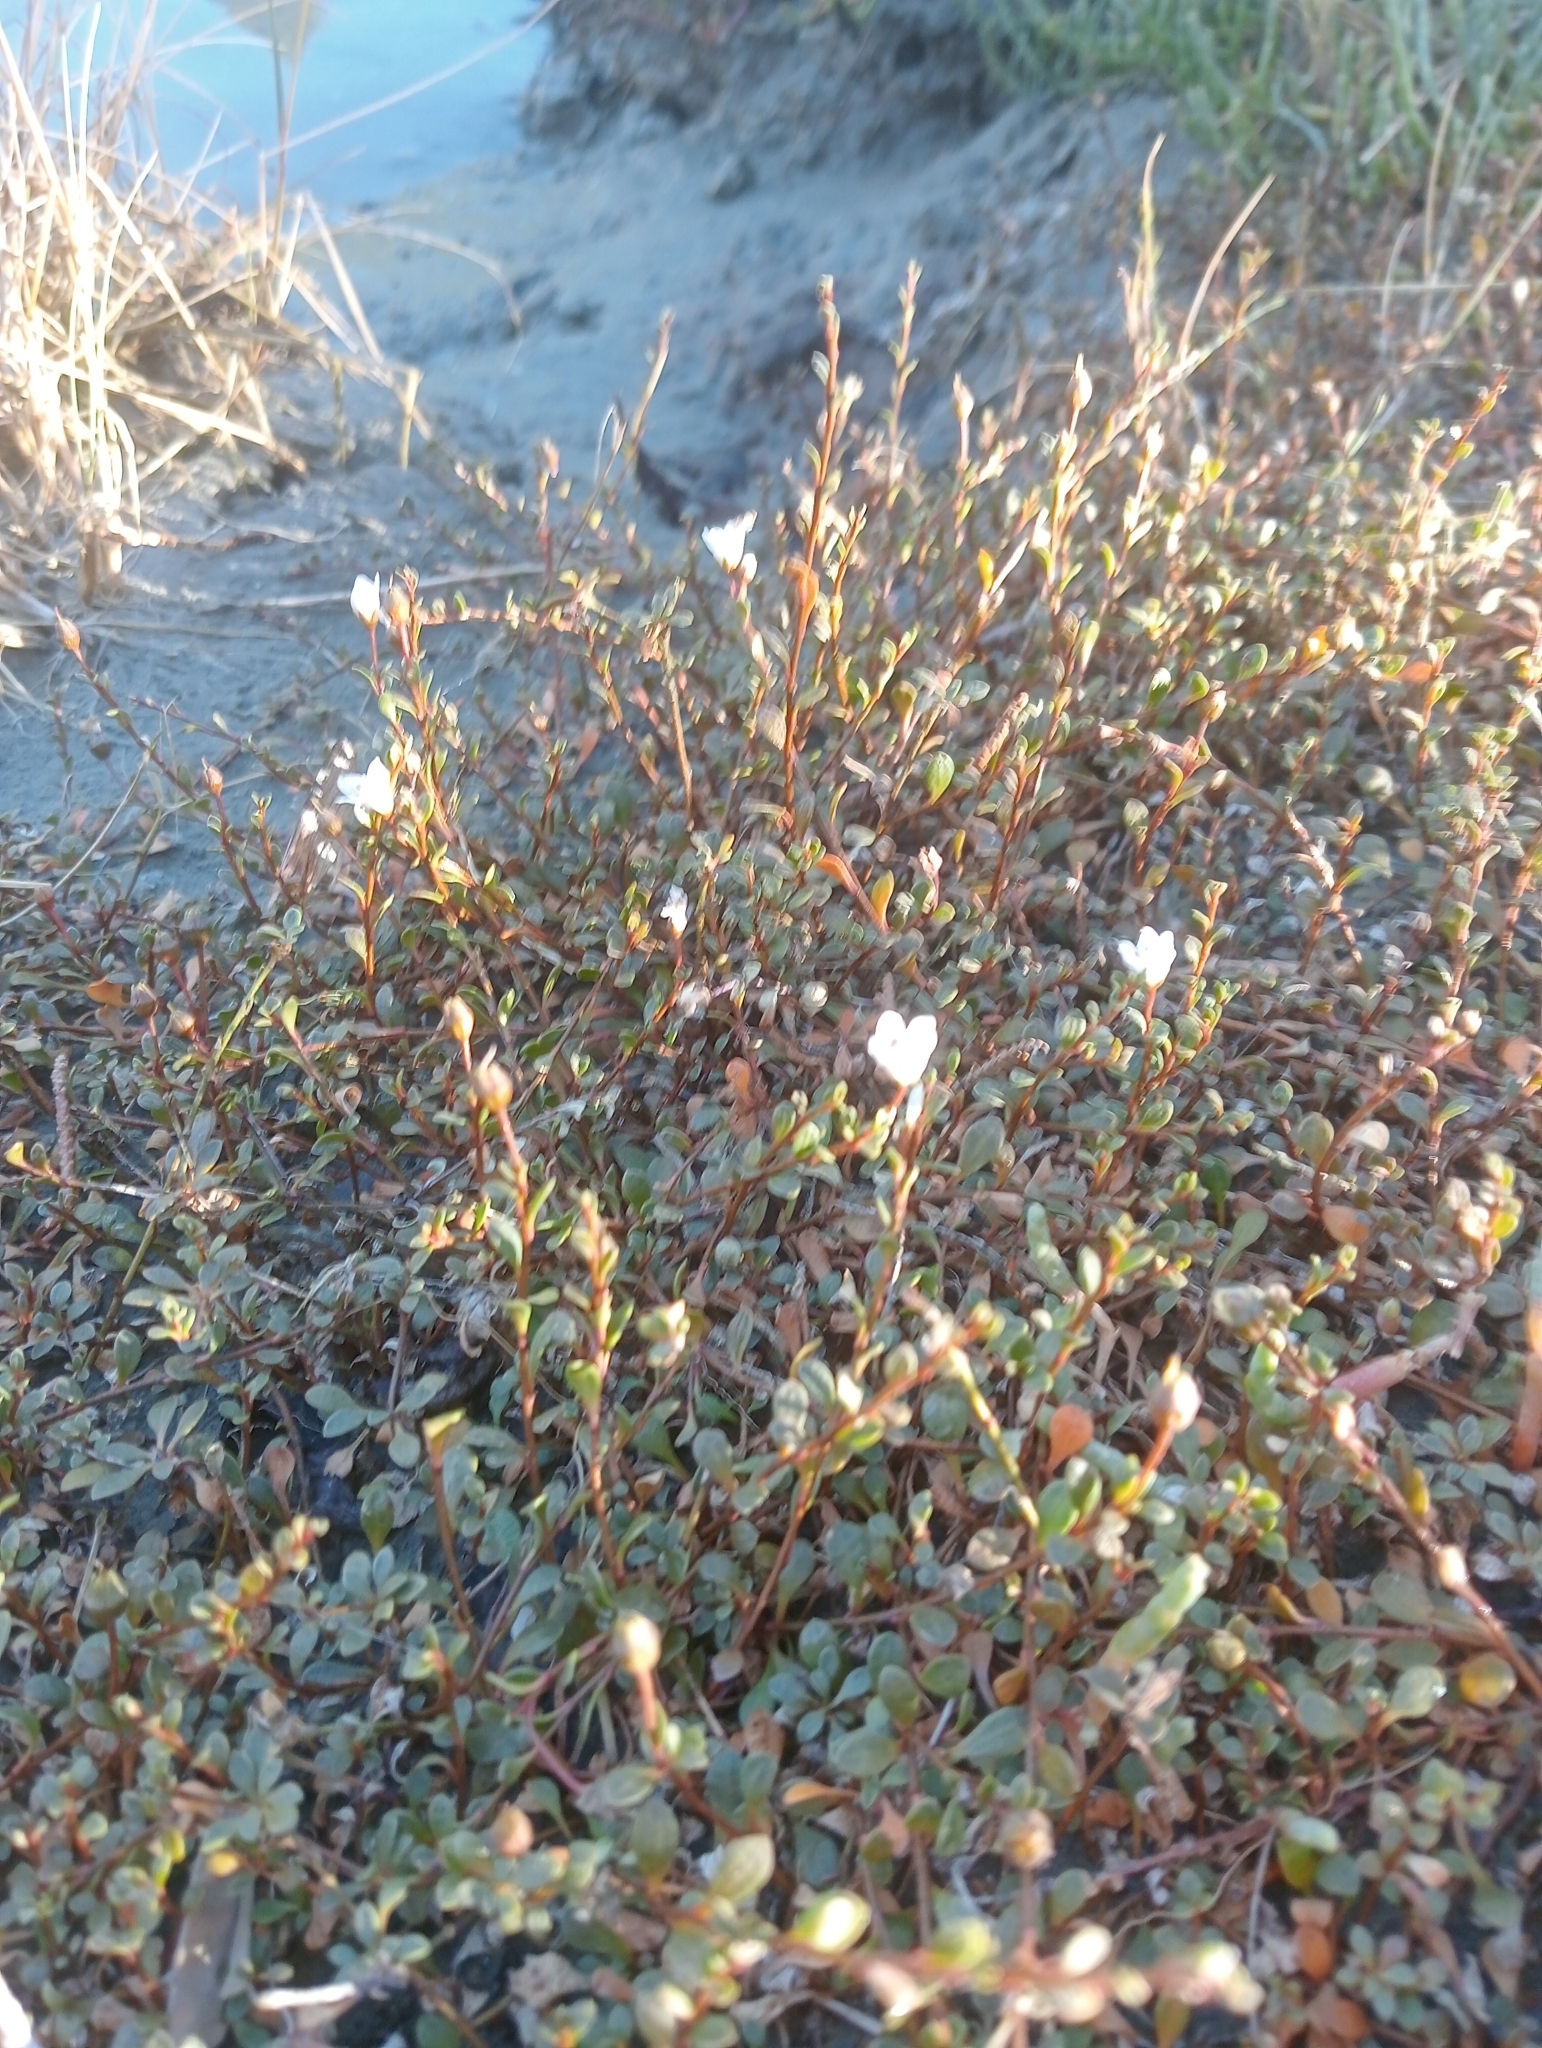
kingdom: Plantae
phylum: Tracheophyta
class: Magnoliopsida
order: Ericales
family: Primulaceae
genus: Samolus
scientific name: Samolus repens
